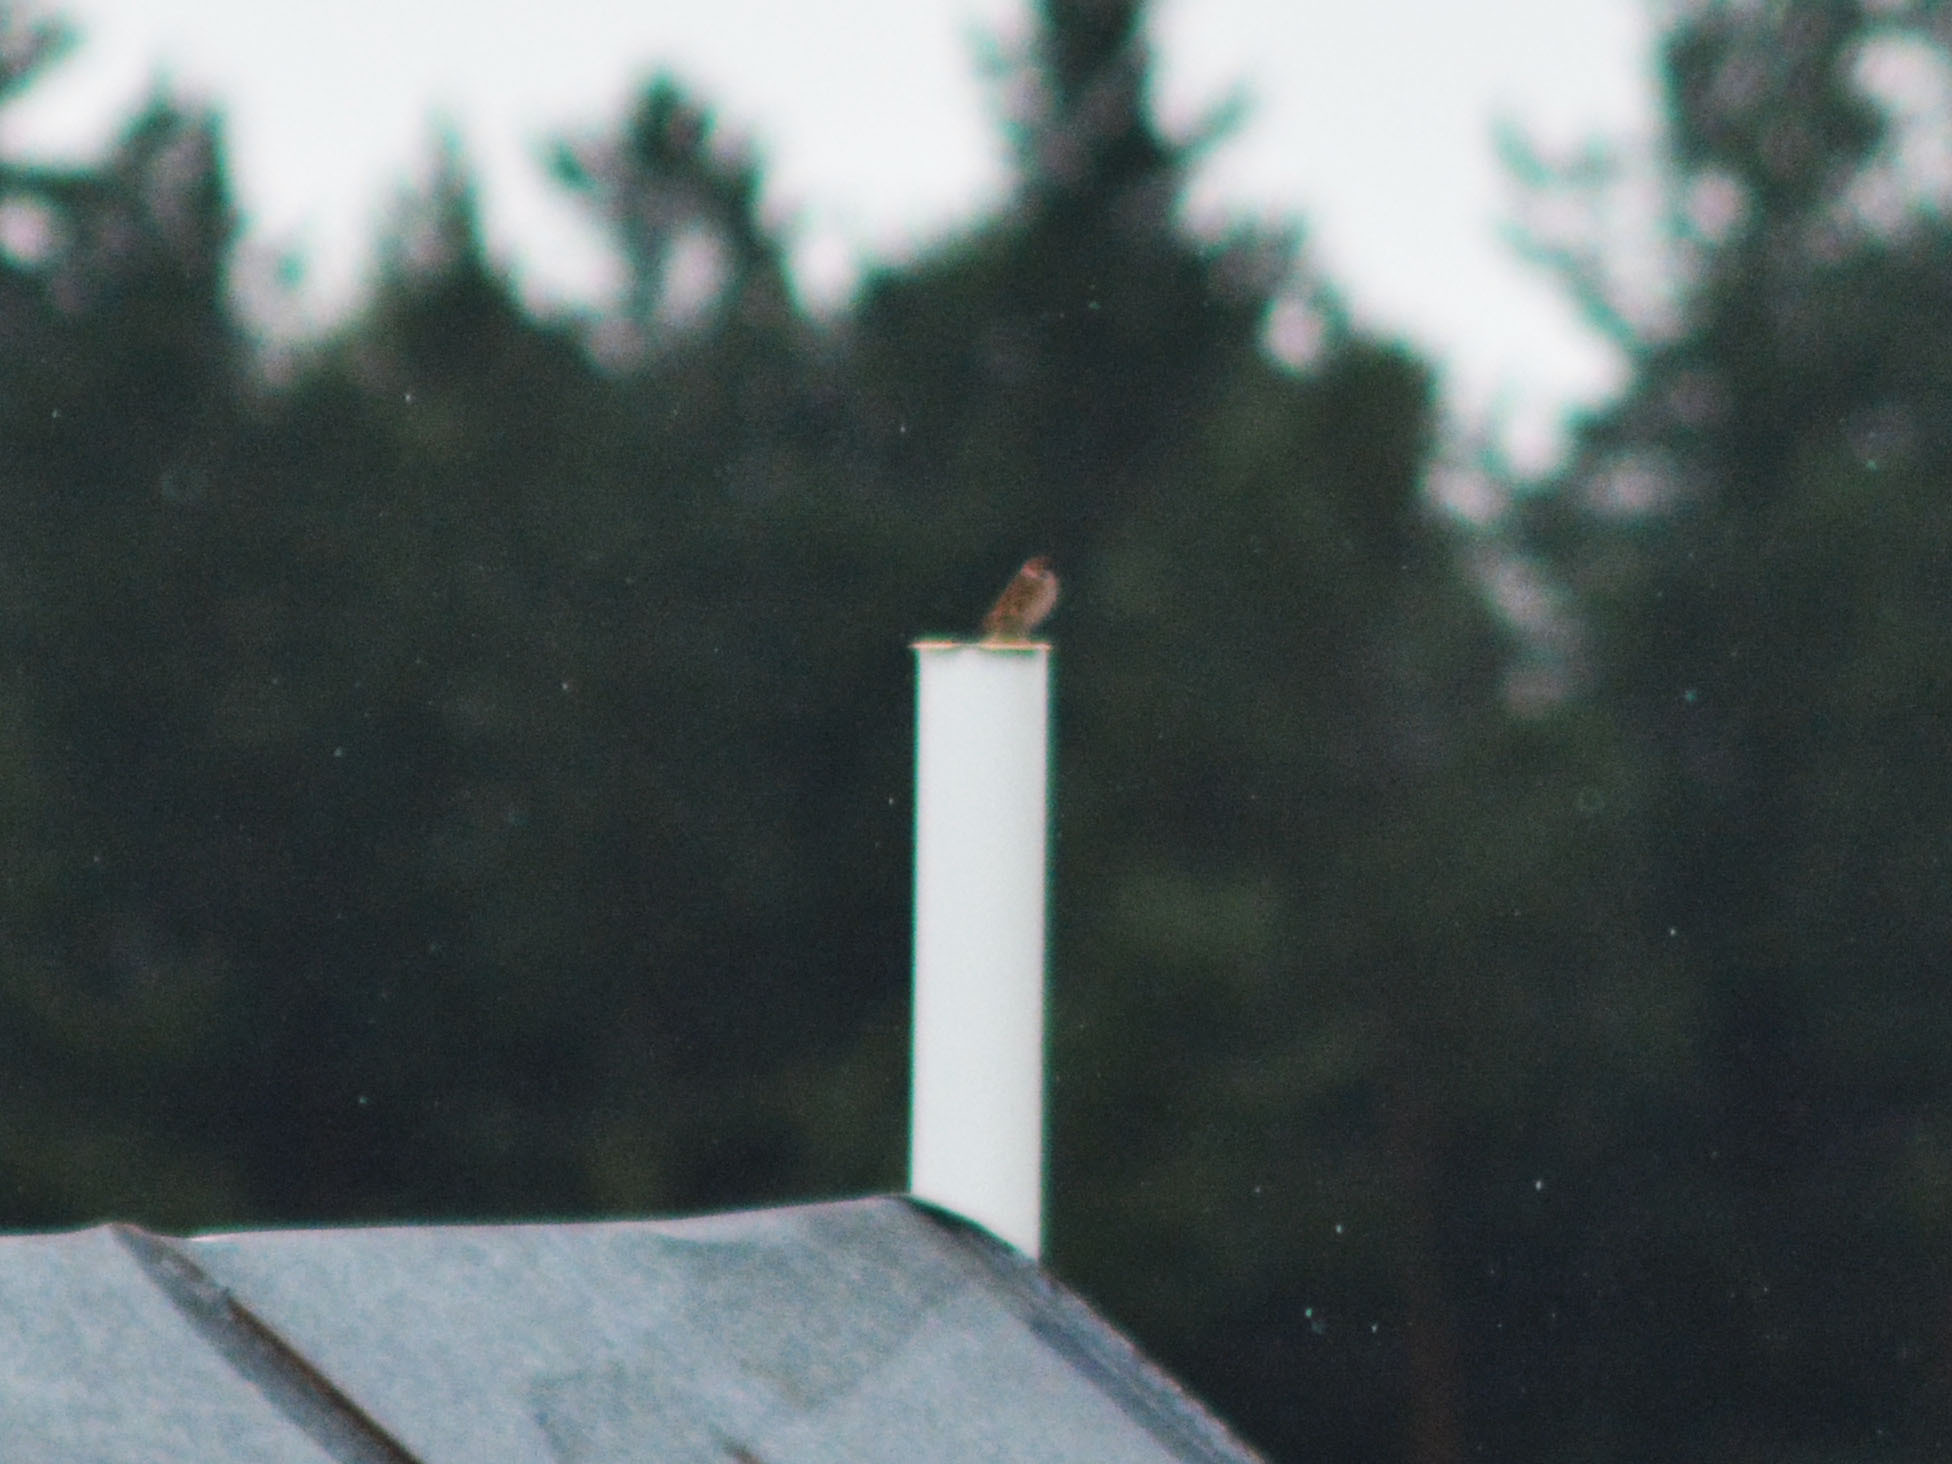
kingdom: Animalia
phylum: Chordata
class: Aves
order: Passeriformes
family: Passeridae
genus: Passer
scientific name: Passer montanus
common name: Eurasian tree sparrow
